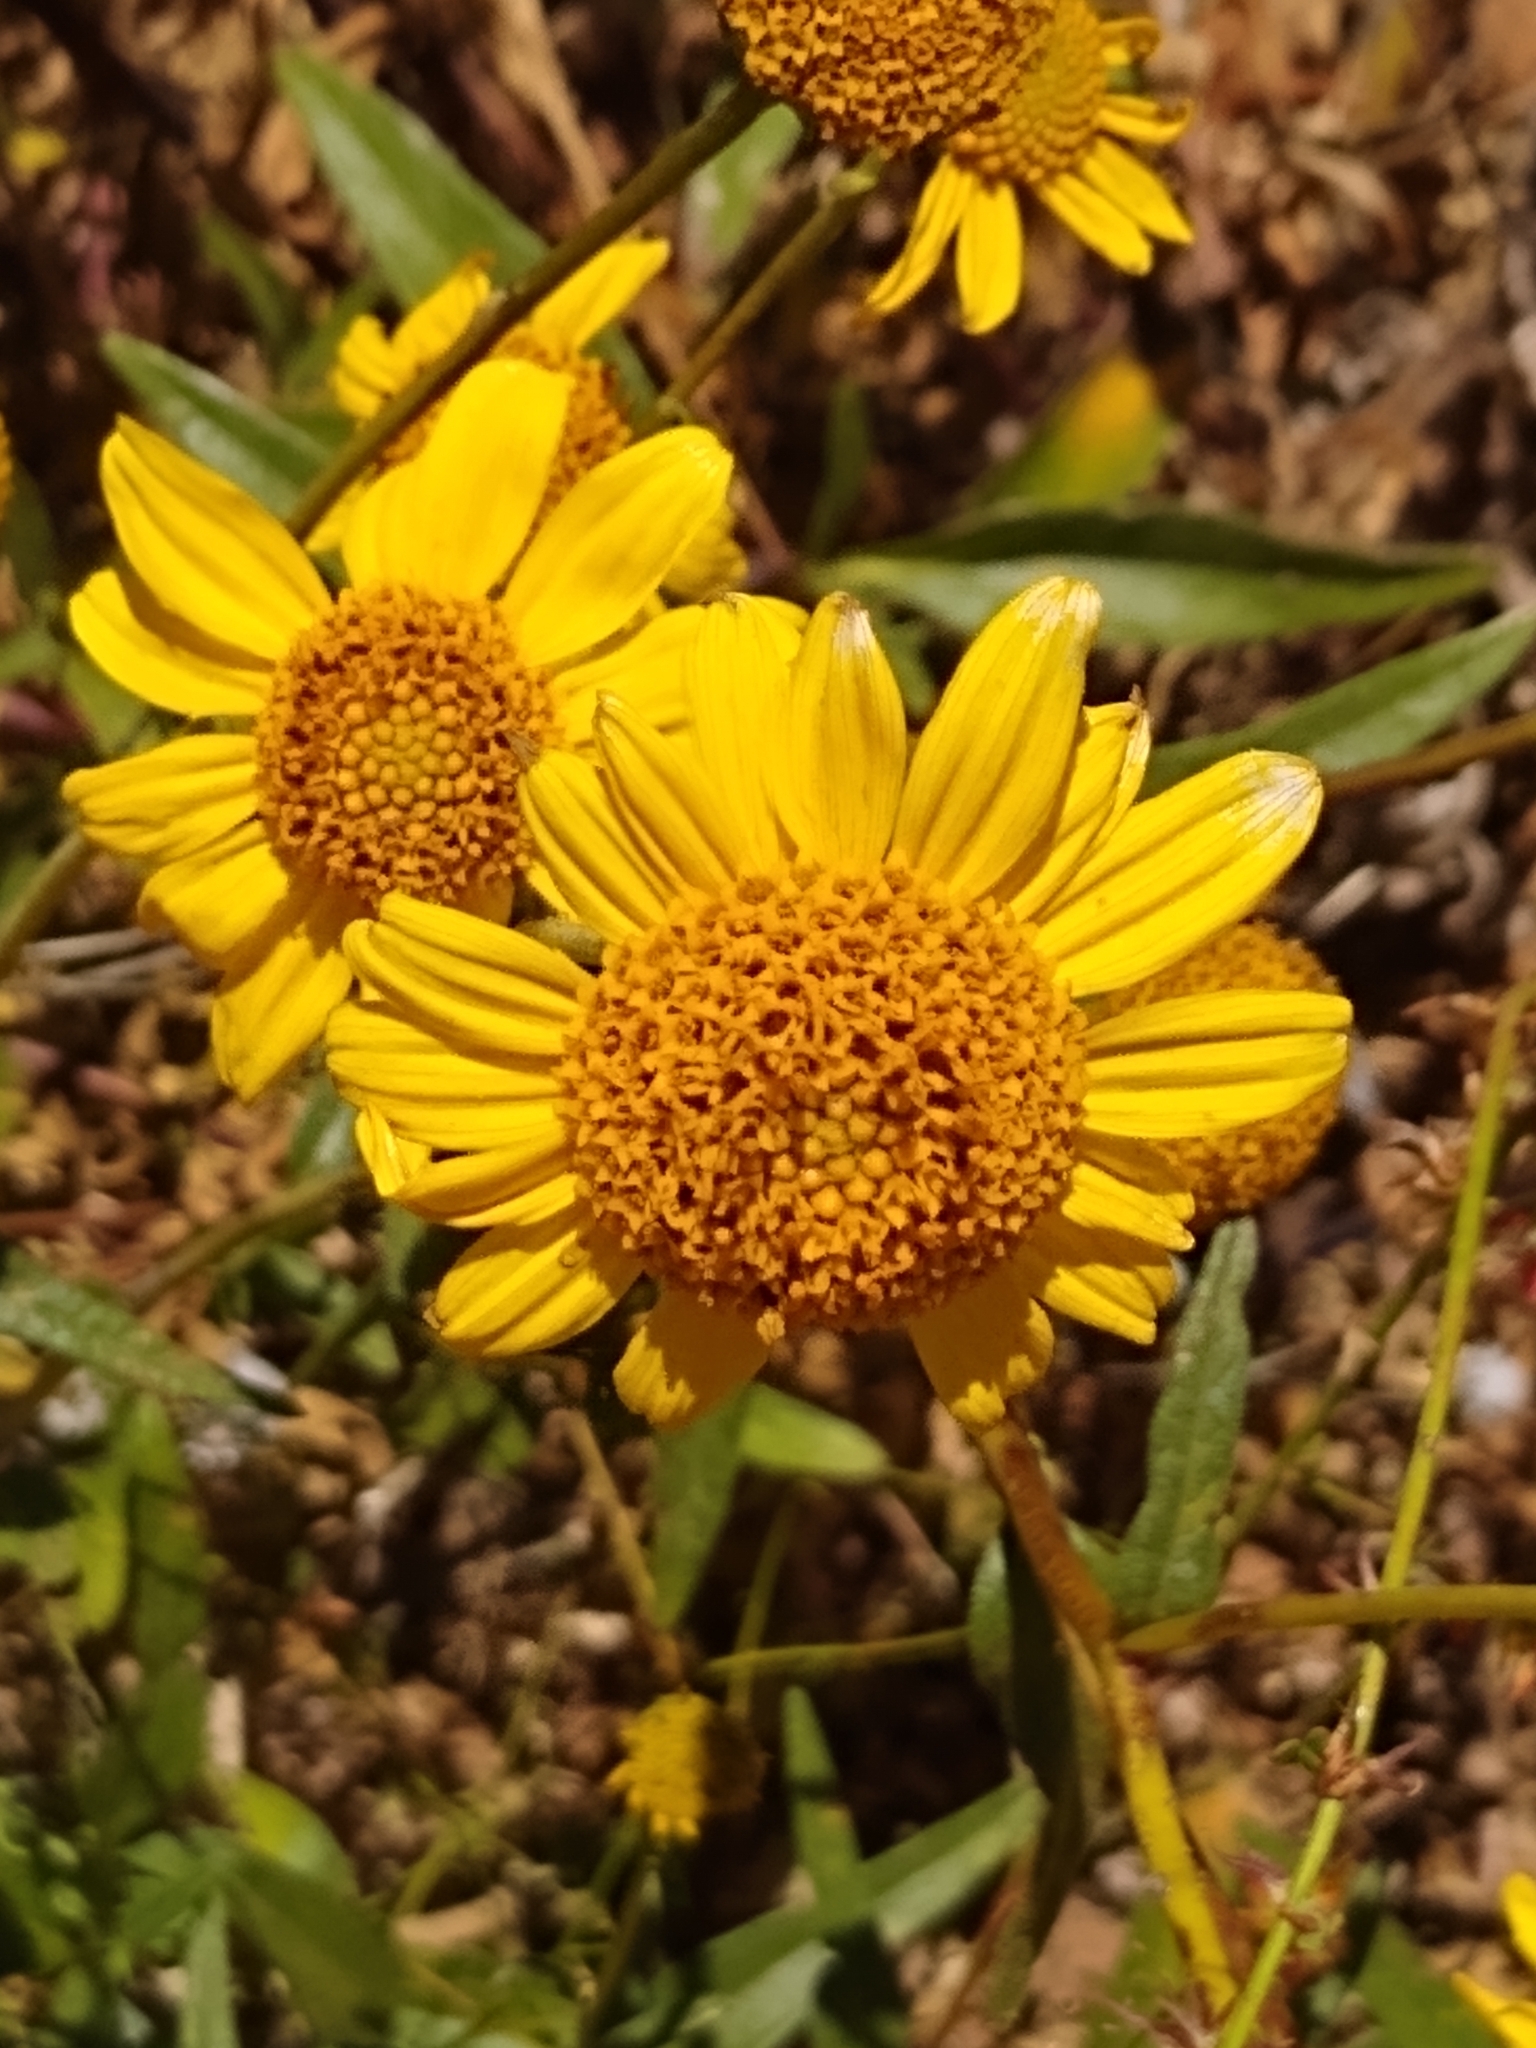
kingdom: Plantae
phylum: Tracheophyta
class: Magnoliopsida
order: Asterales
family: Asteraceae
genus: Helianthus
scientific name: Helianthus gracilentus
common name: Slender sunflower
